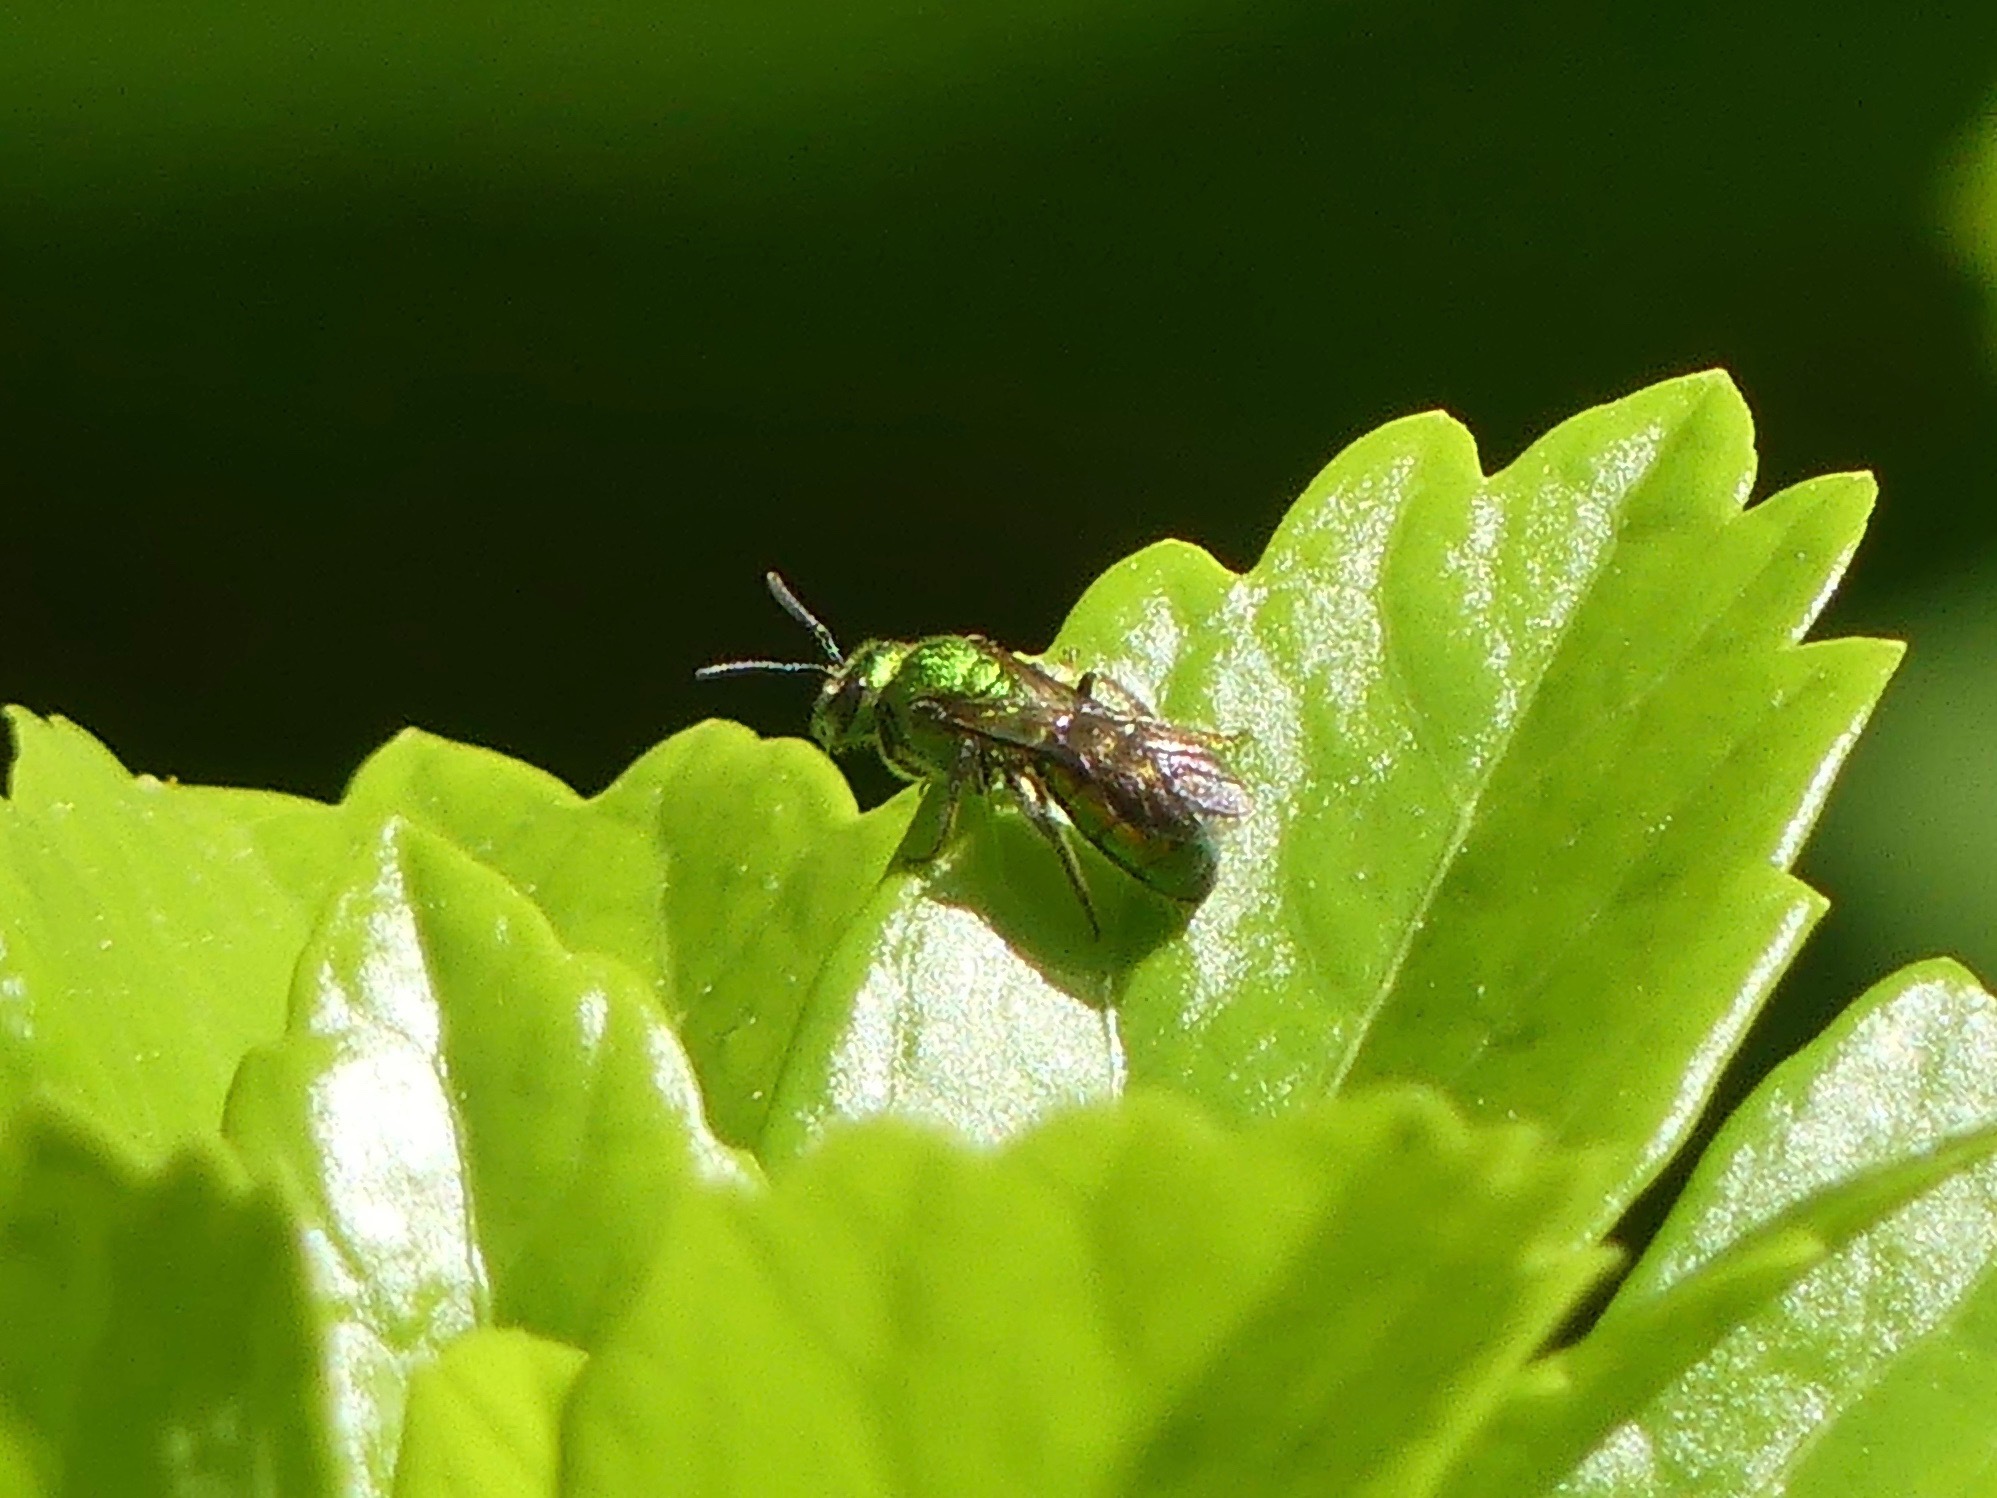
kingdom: Animalia
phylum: Arthropoda
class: Insecta
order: Hymenoptera
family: Halictidae
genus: Augochlora
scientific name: Augochlora pura
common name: Pure green sweat bee
